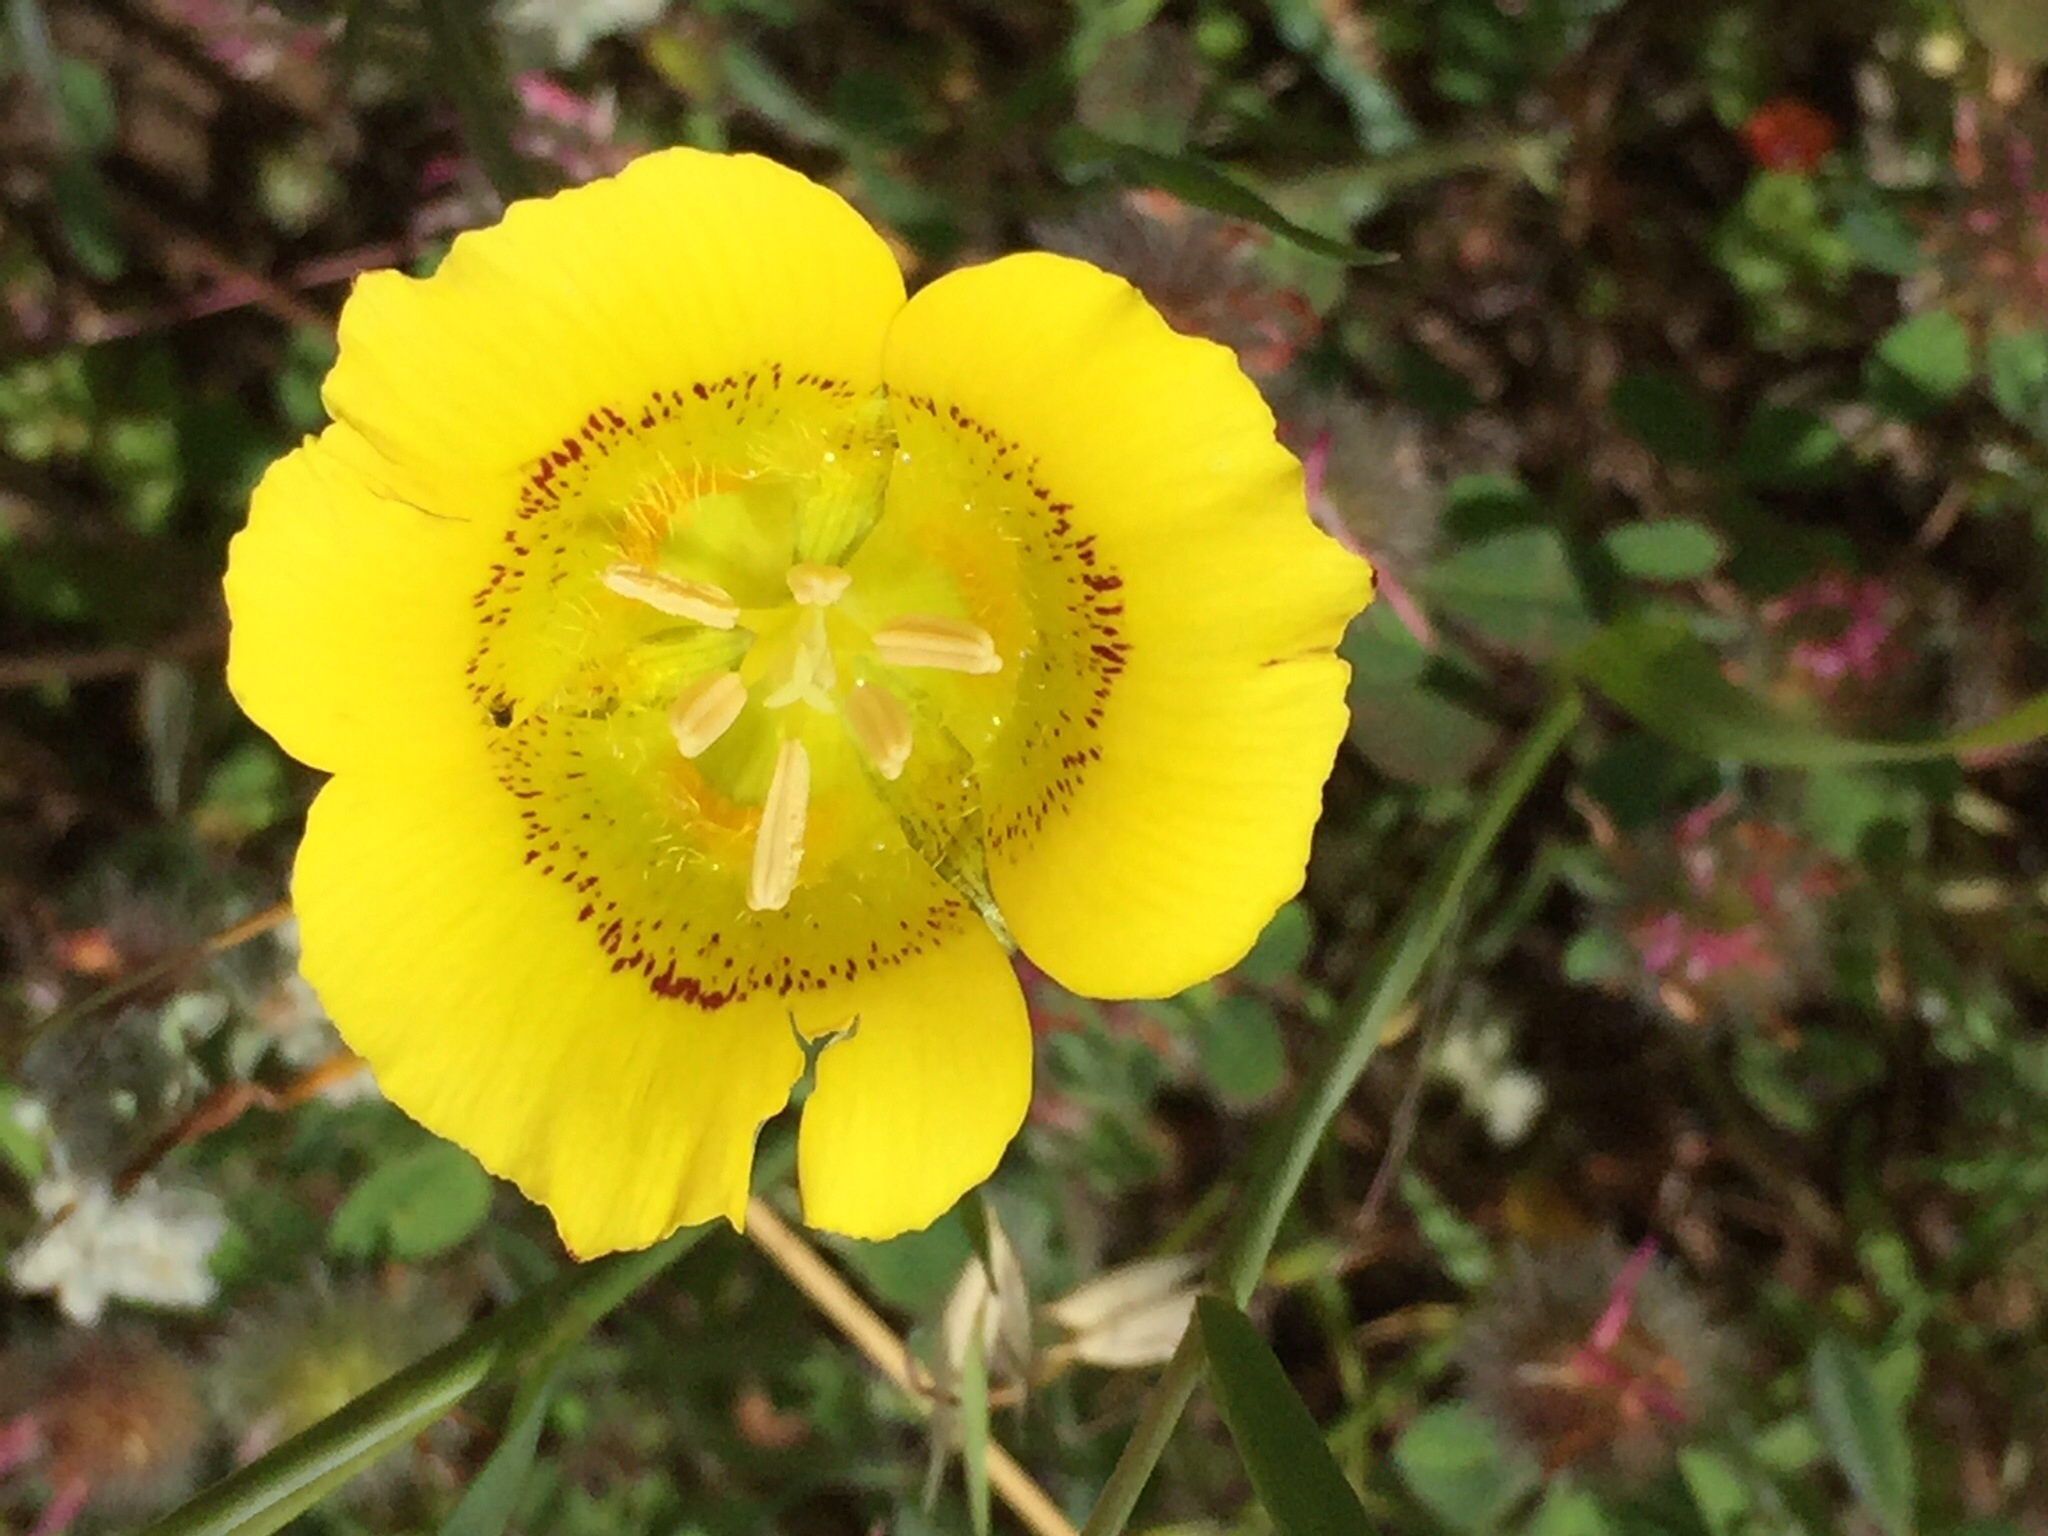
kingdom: Plantae
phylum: Tracheophyta
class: Liliopsida
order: Liliales
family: Liliaceae
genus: Calochortus
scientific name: Calochortus luteus
